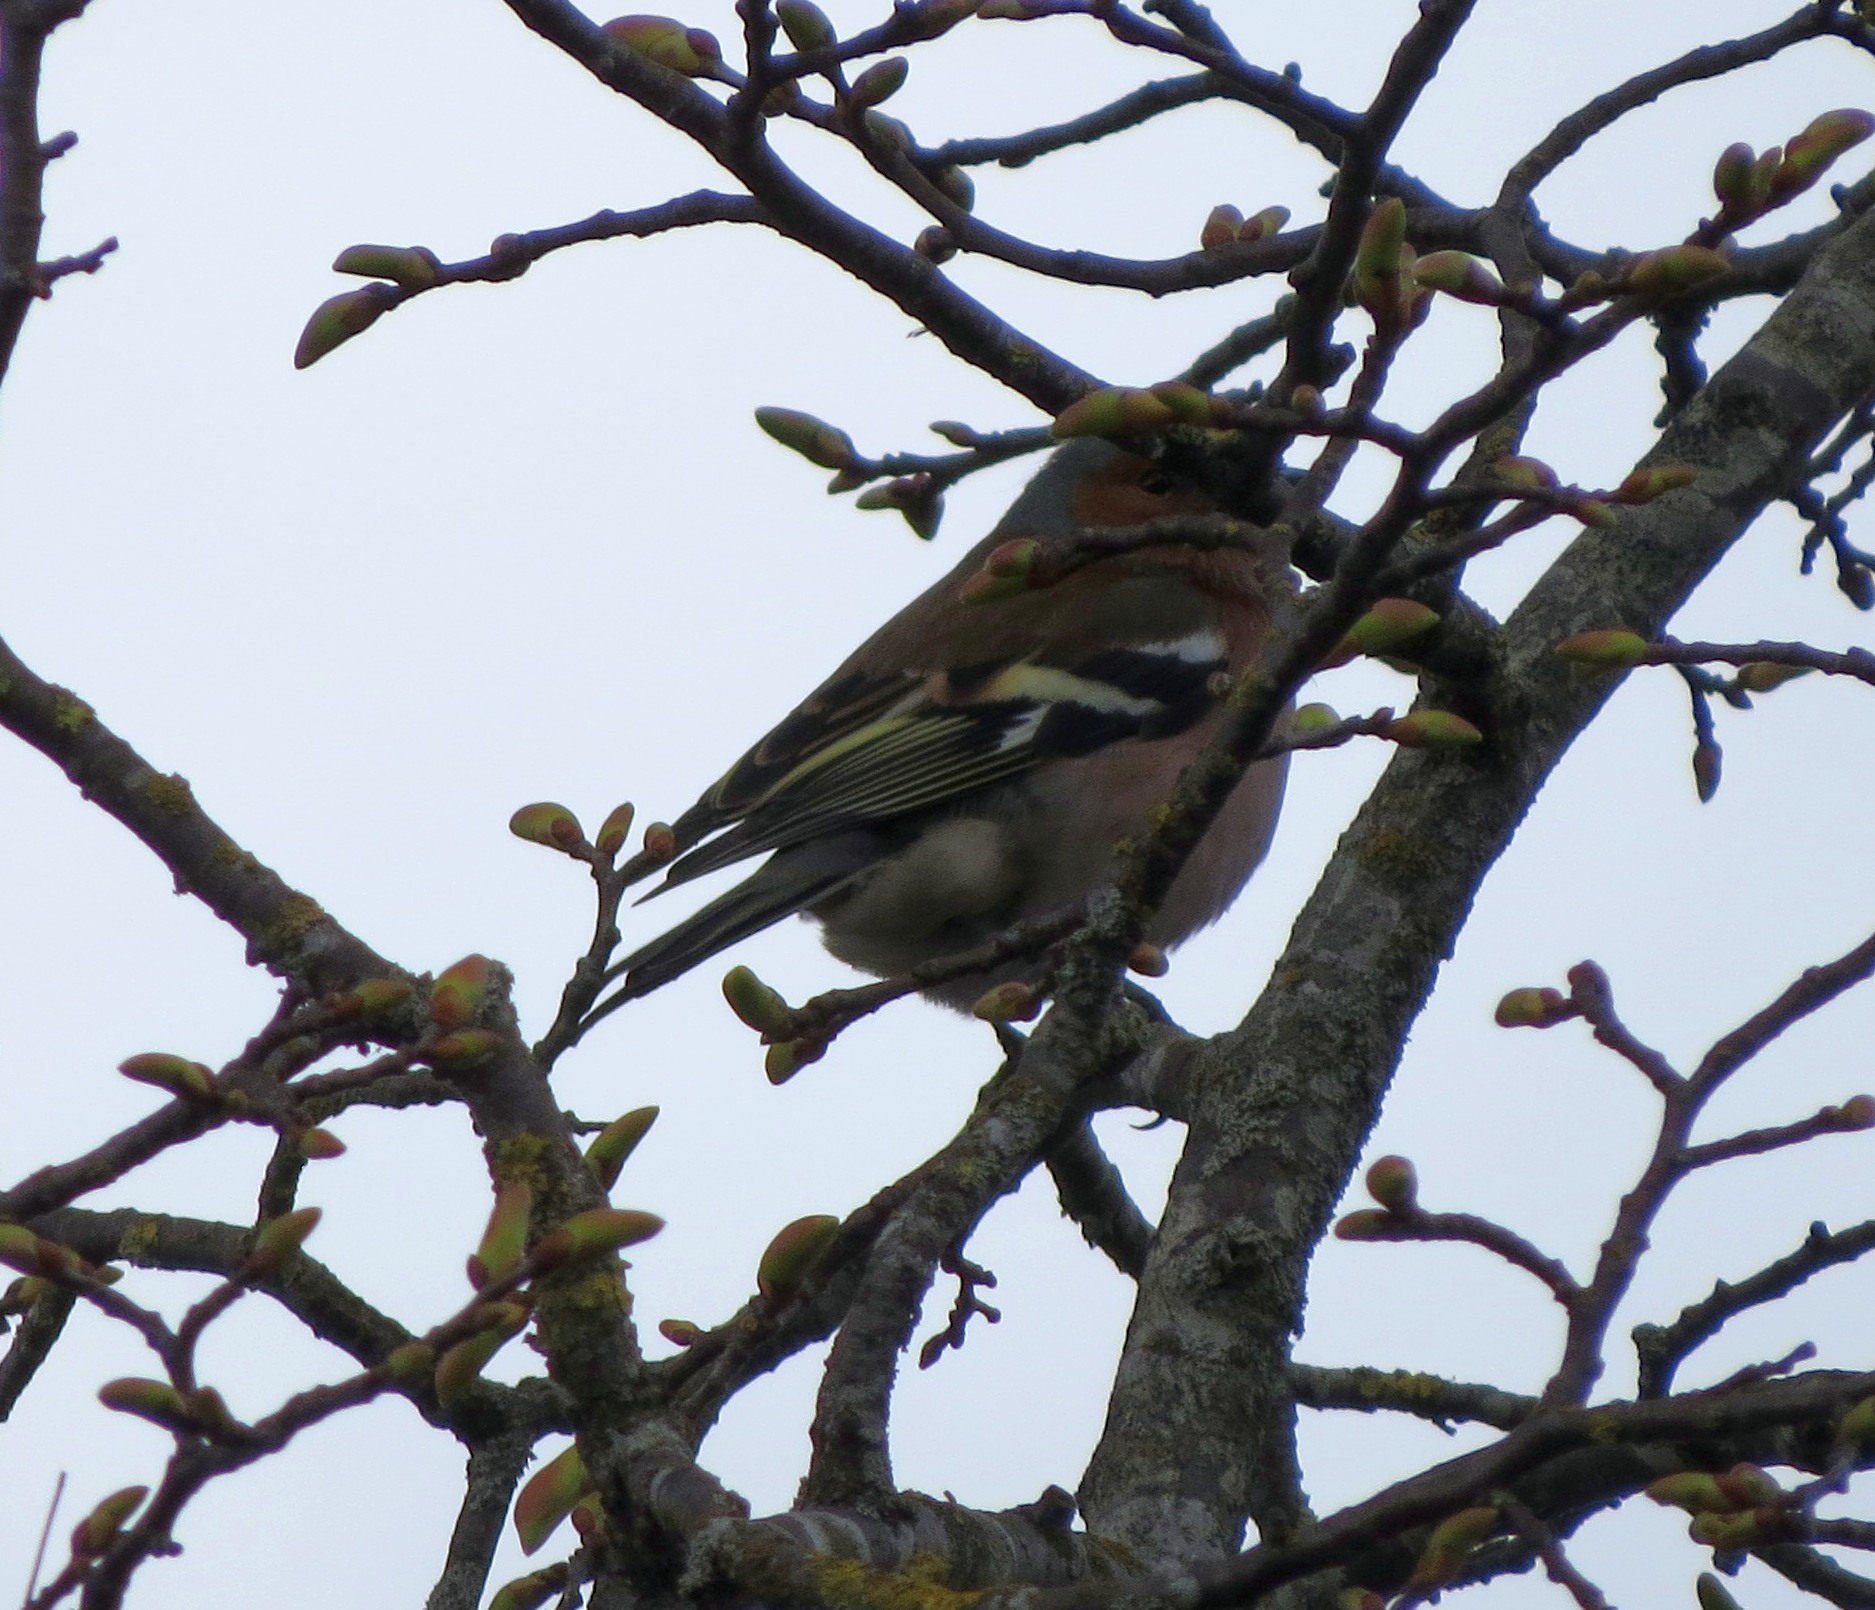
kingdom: Animalia
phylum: Chordata
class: Aves
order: Passeriformes
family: Fringillidae
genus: Fringilla
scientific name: Fringilla coelebs
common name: Common chaffinch
